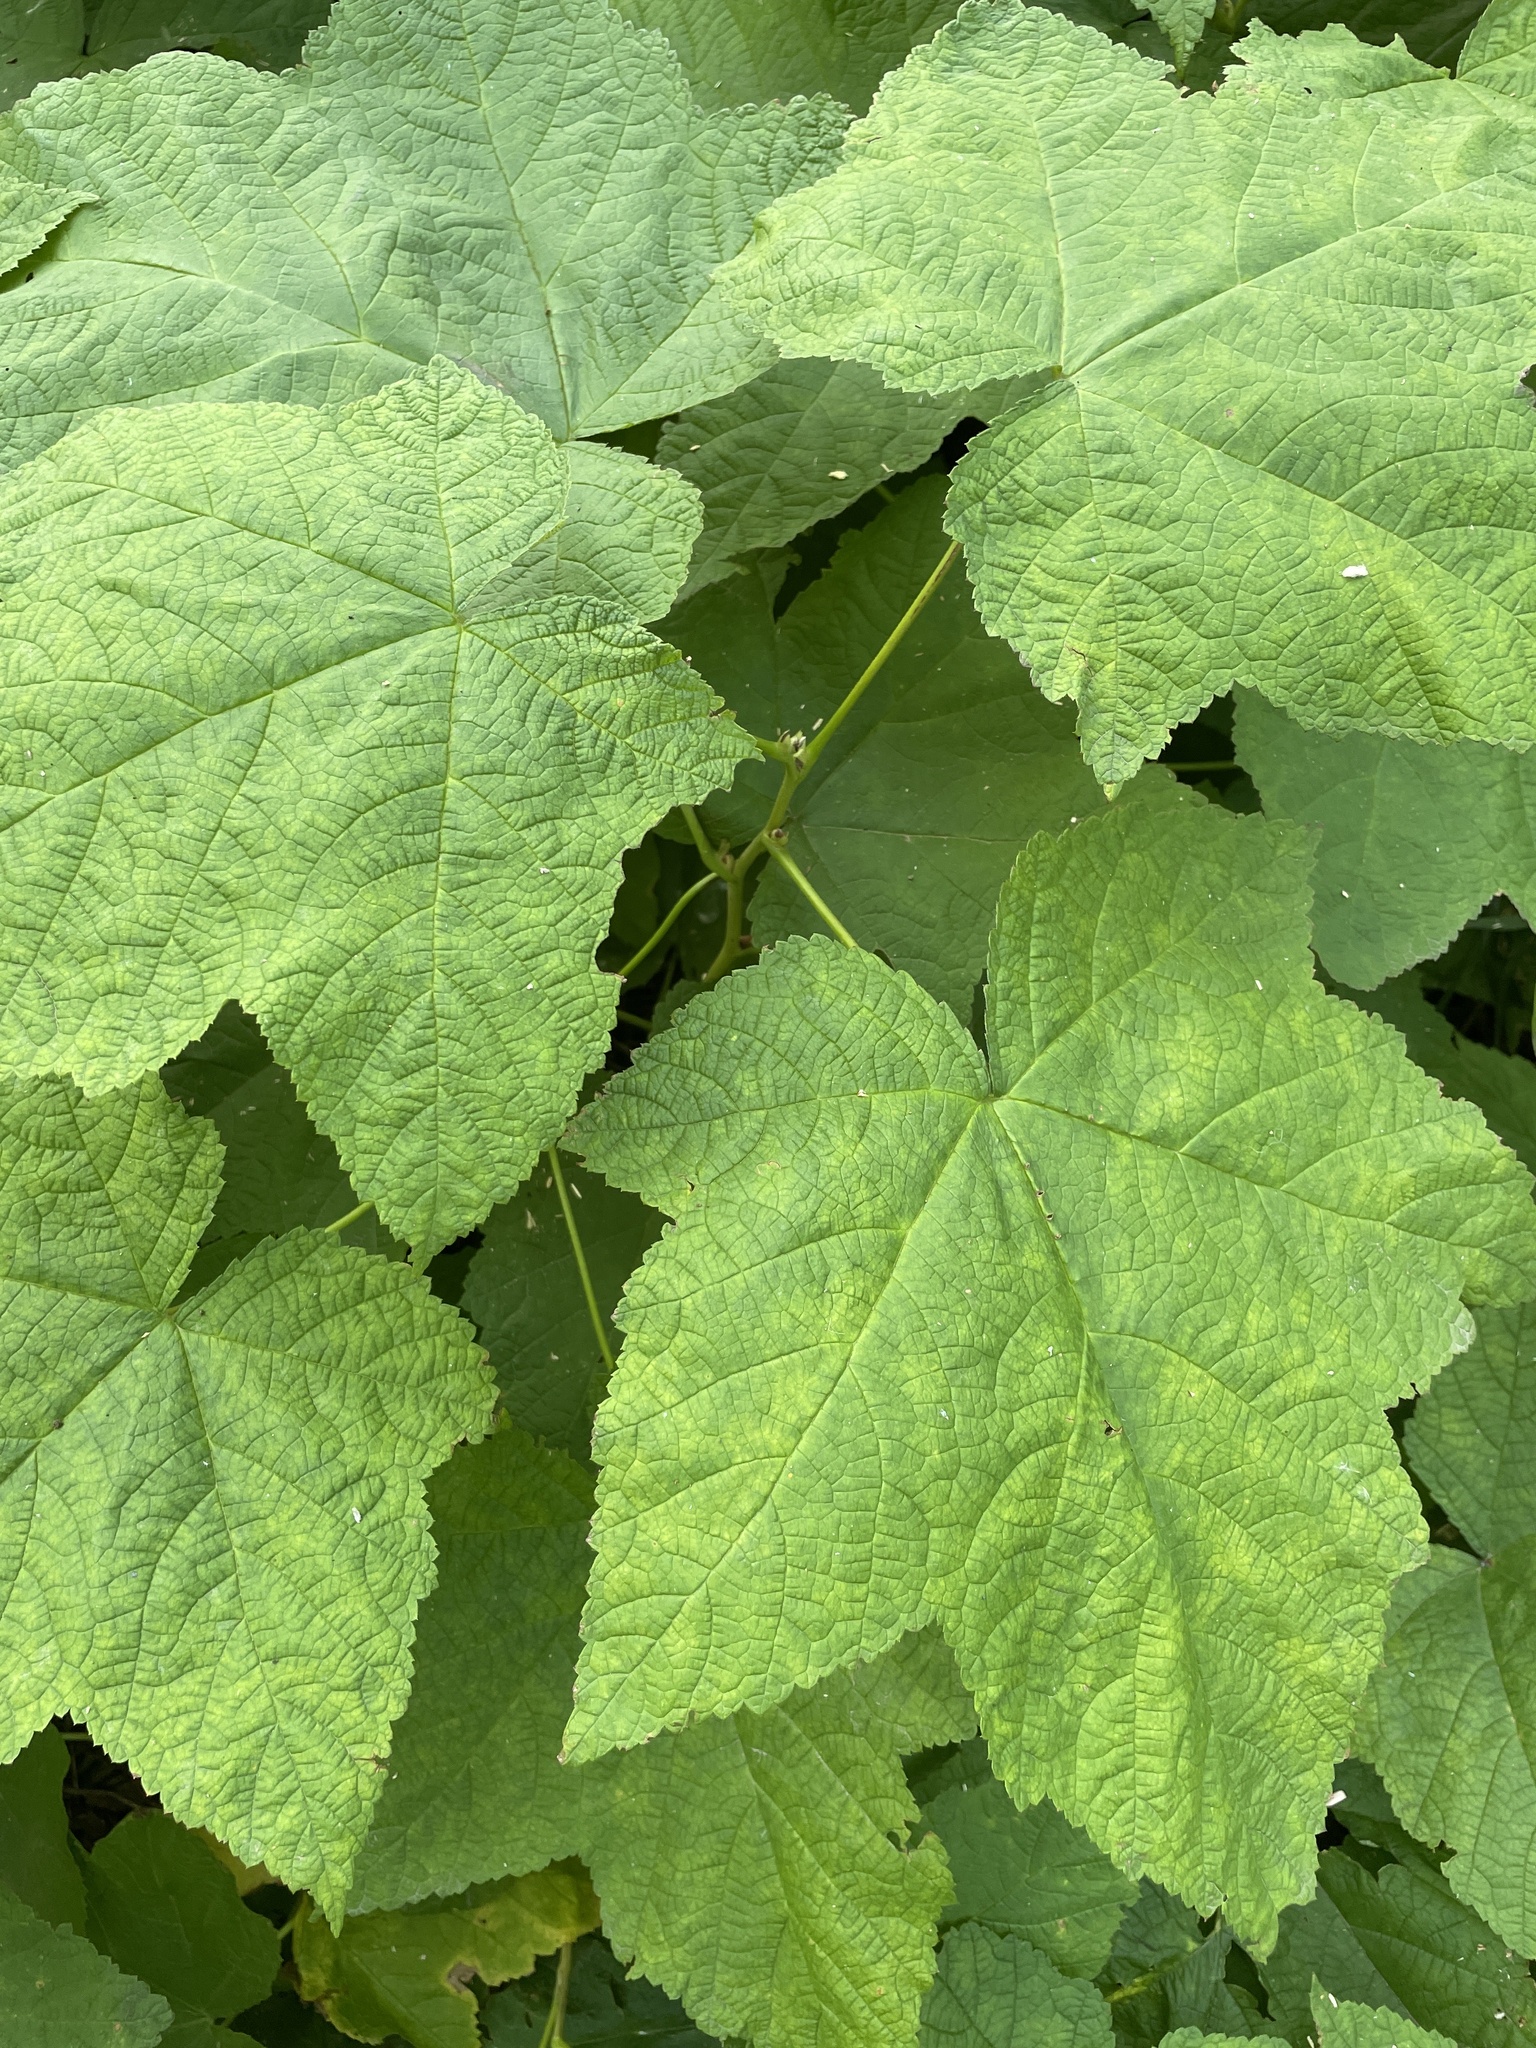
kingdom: Plantae
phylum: Tracheophyta
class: Magnoliopsida
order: Rosales
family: Rosaceae
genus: Rubus
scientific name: Rubus parviflorus
